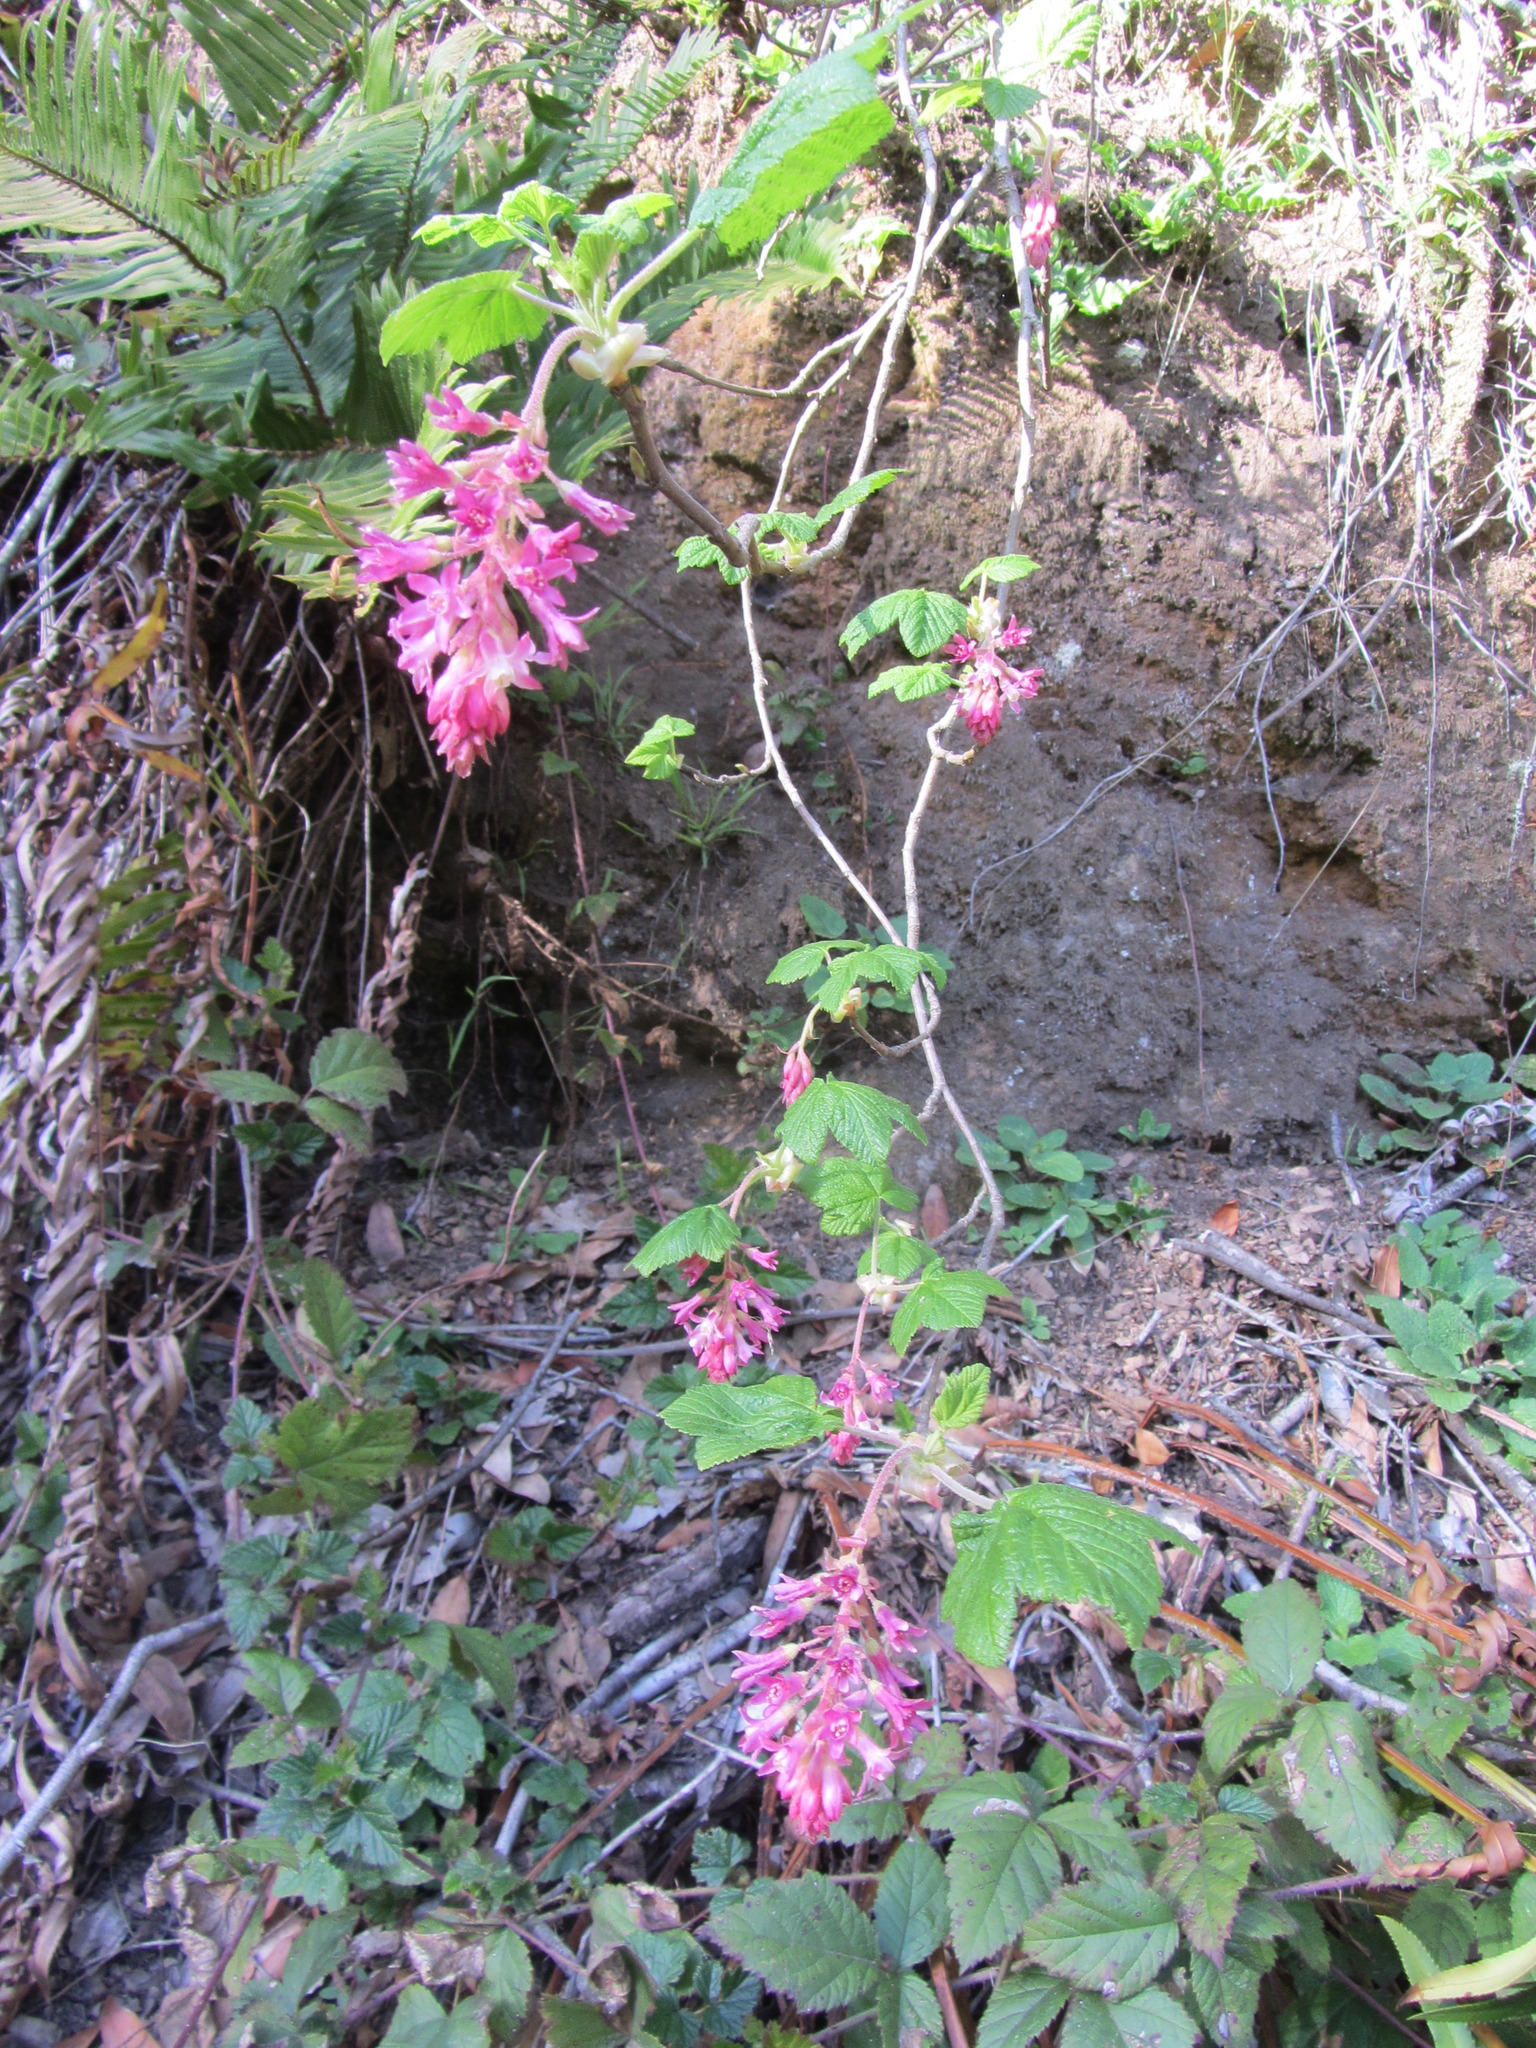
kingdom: Plantae
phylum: Tracheophyta
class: Magnoliopsida
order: Saxifragales
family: Grossulariaceae
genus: Ribes
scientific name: Ribes sanguineum
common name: Flowering currant
